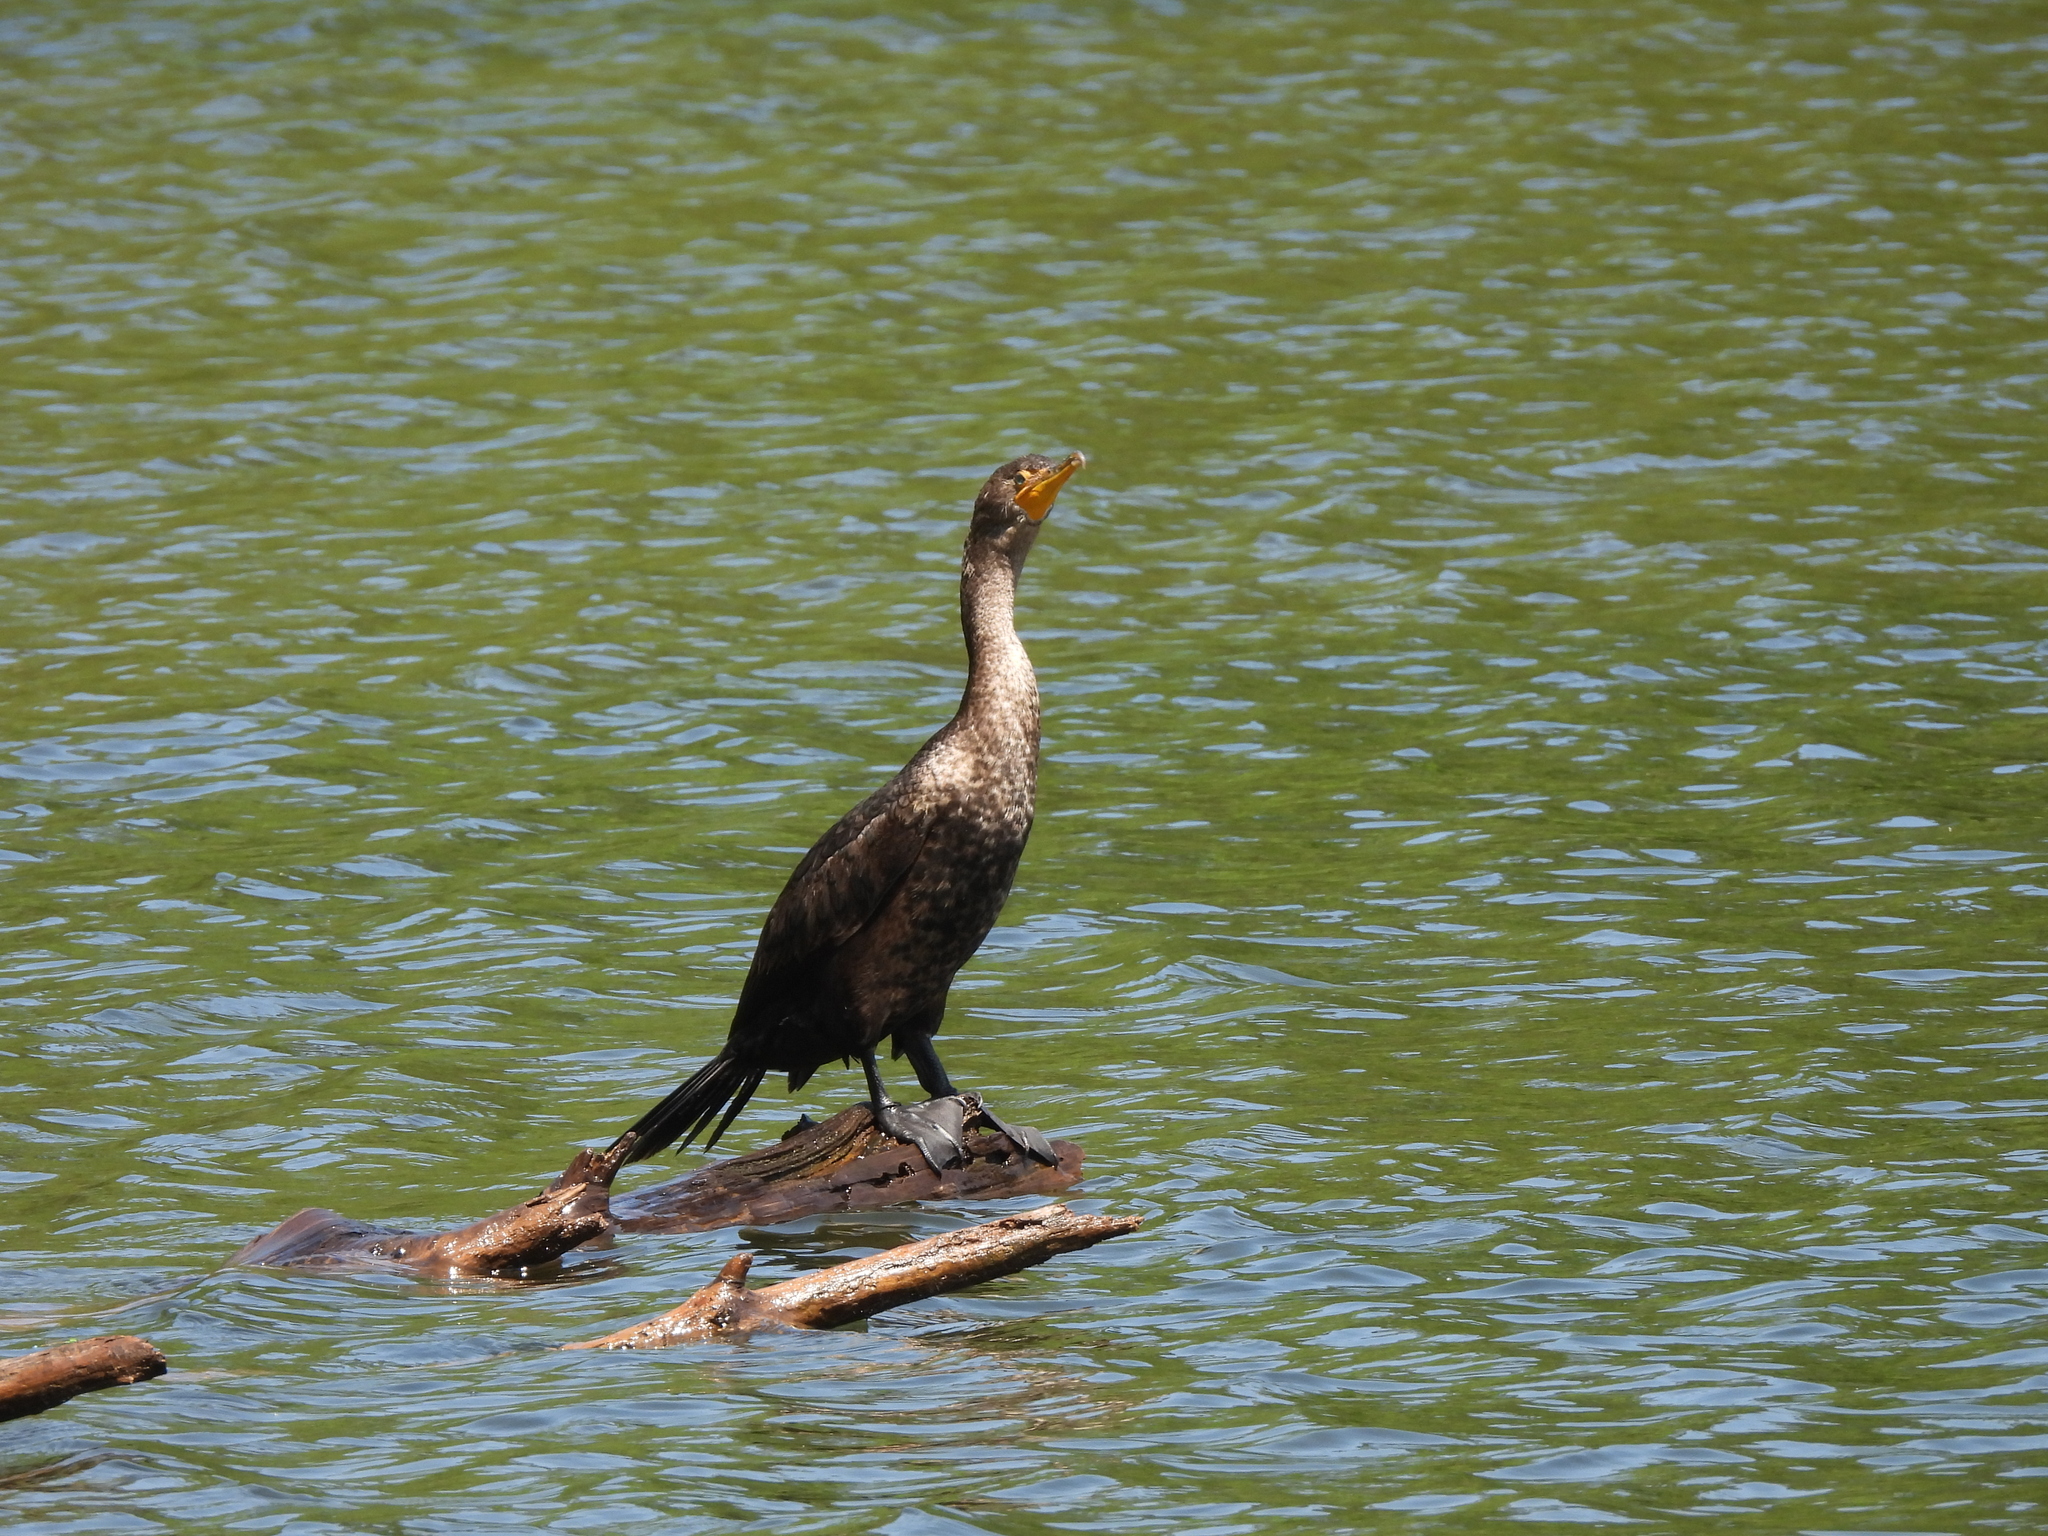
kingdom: Animalia
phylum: Chordata
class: Aves
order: Suliformes
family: Phalacrocoracidae
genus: Phalacrocorax
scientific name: Phalacrocorax auritus
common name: Double-crested cormorant
